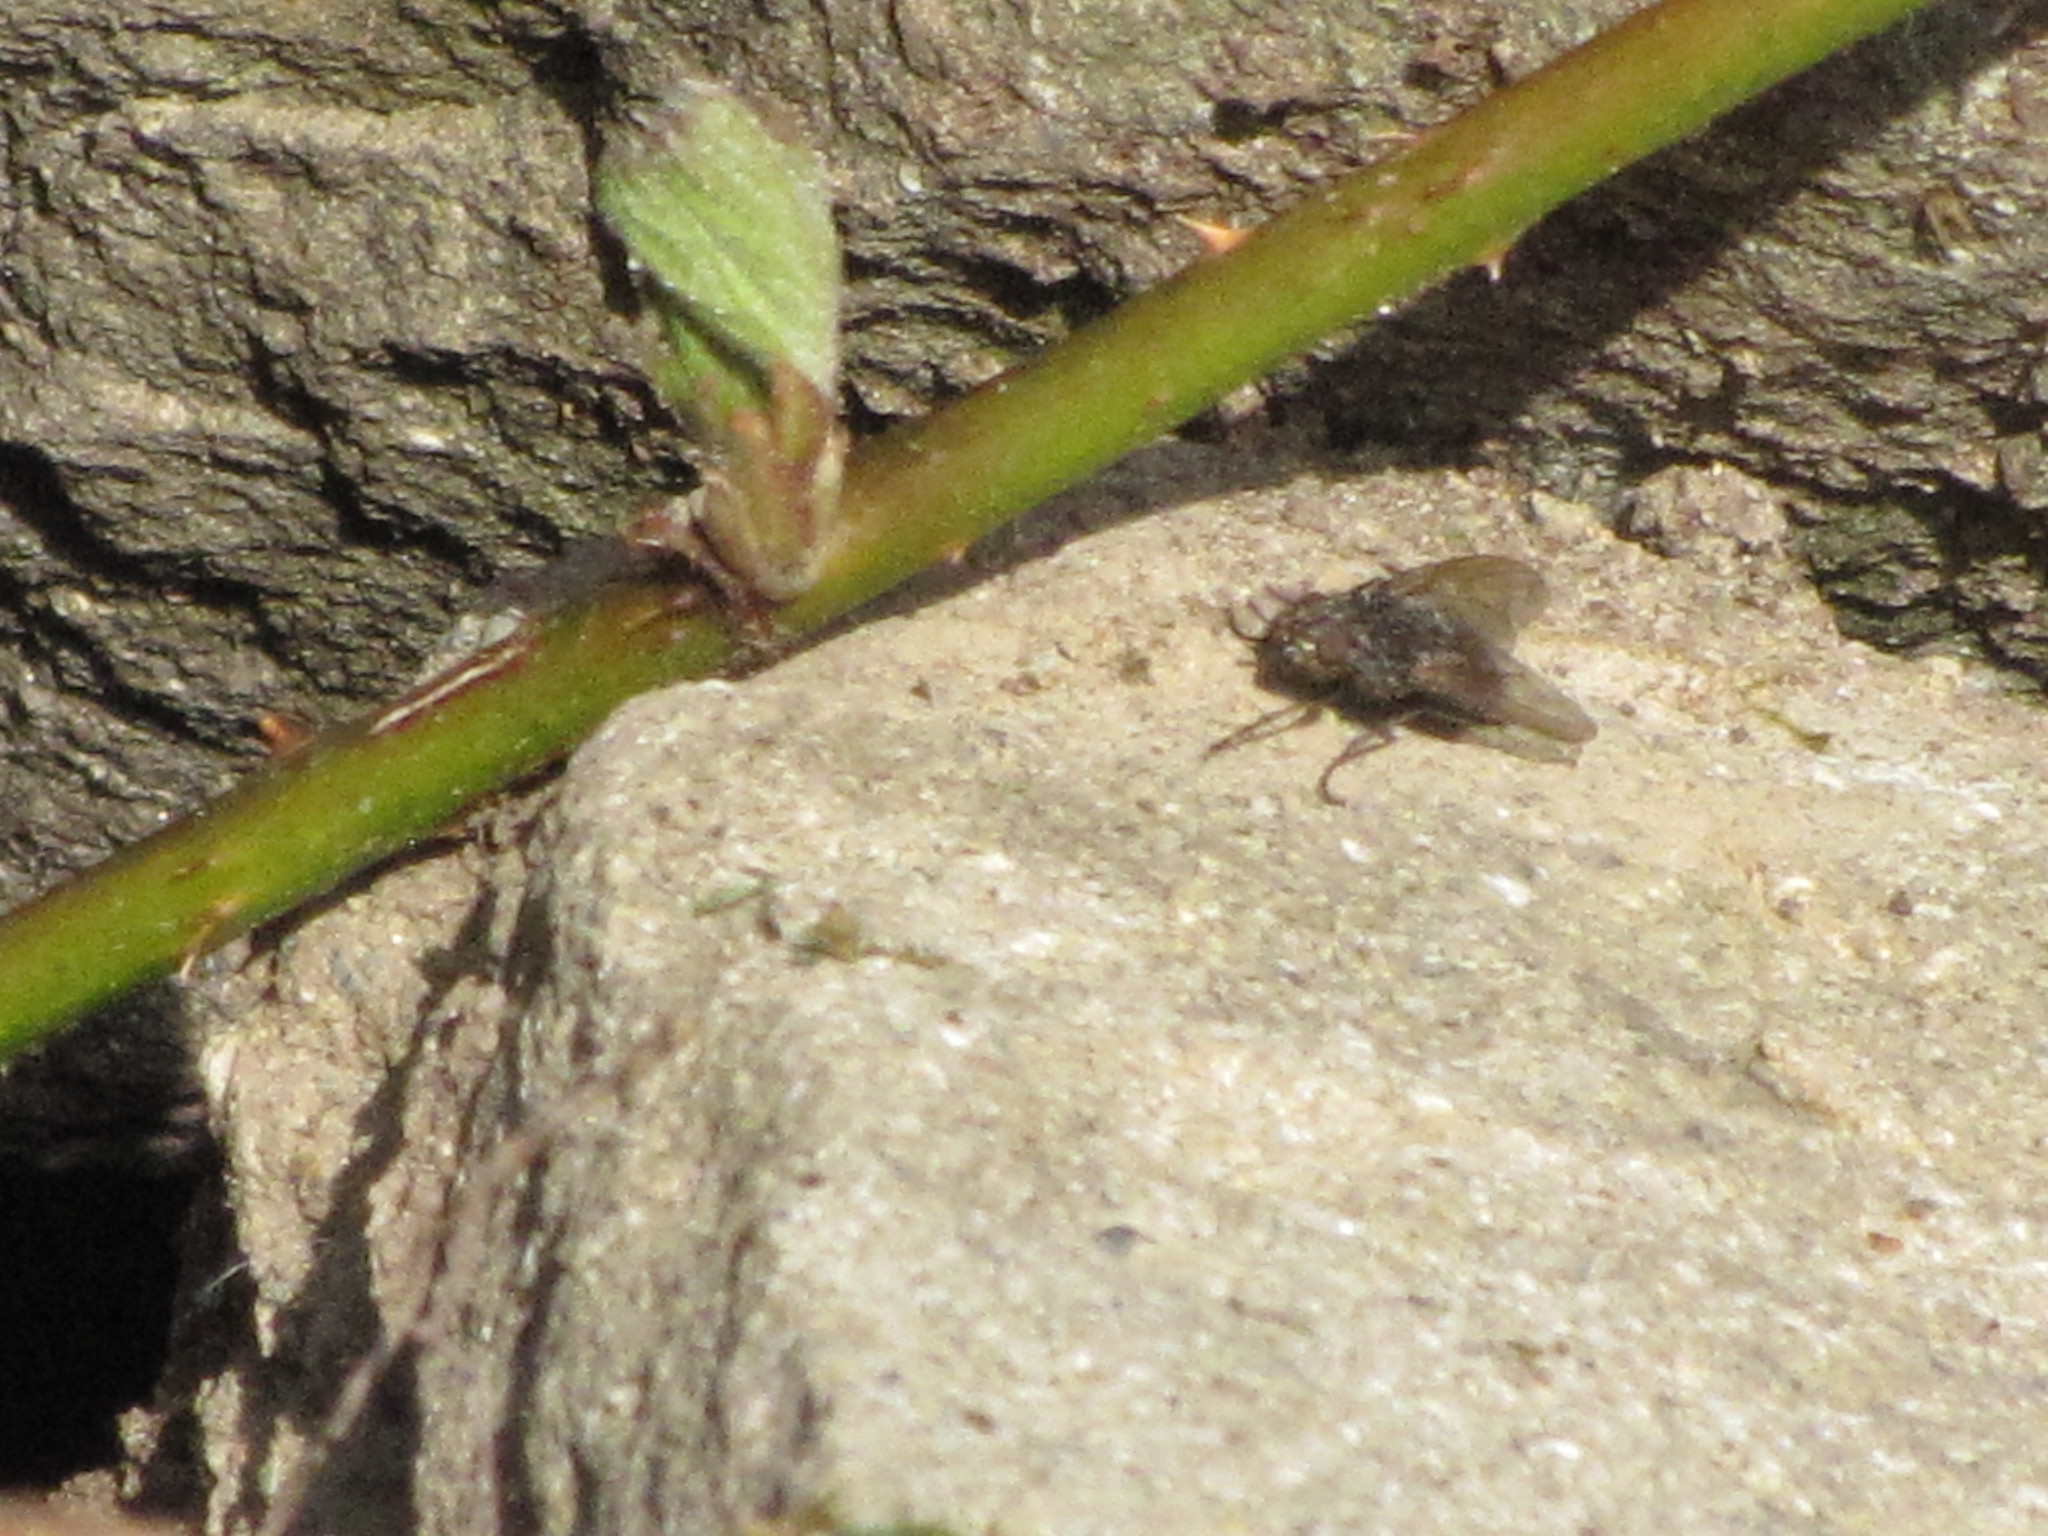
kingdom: Animalia
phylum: Arthropoda
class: Insecta
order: Diptera
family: Polleniidae
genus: Pollenia
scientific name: Pollenia
